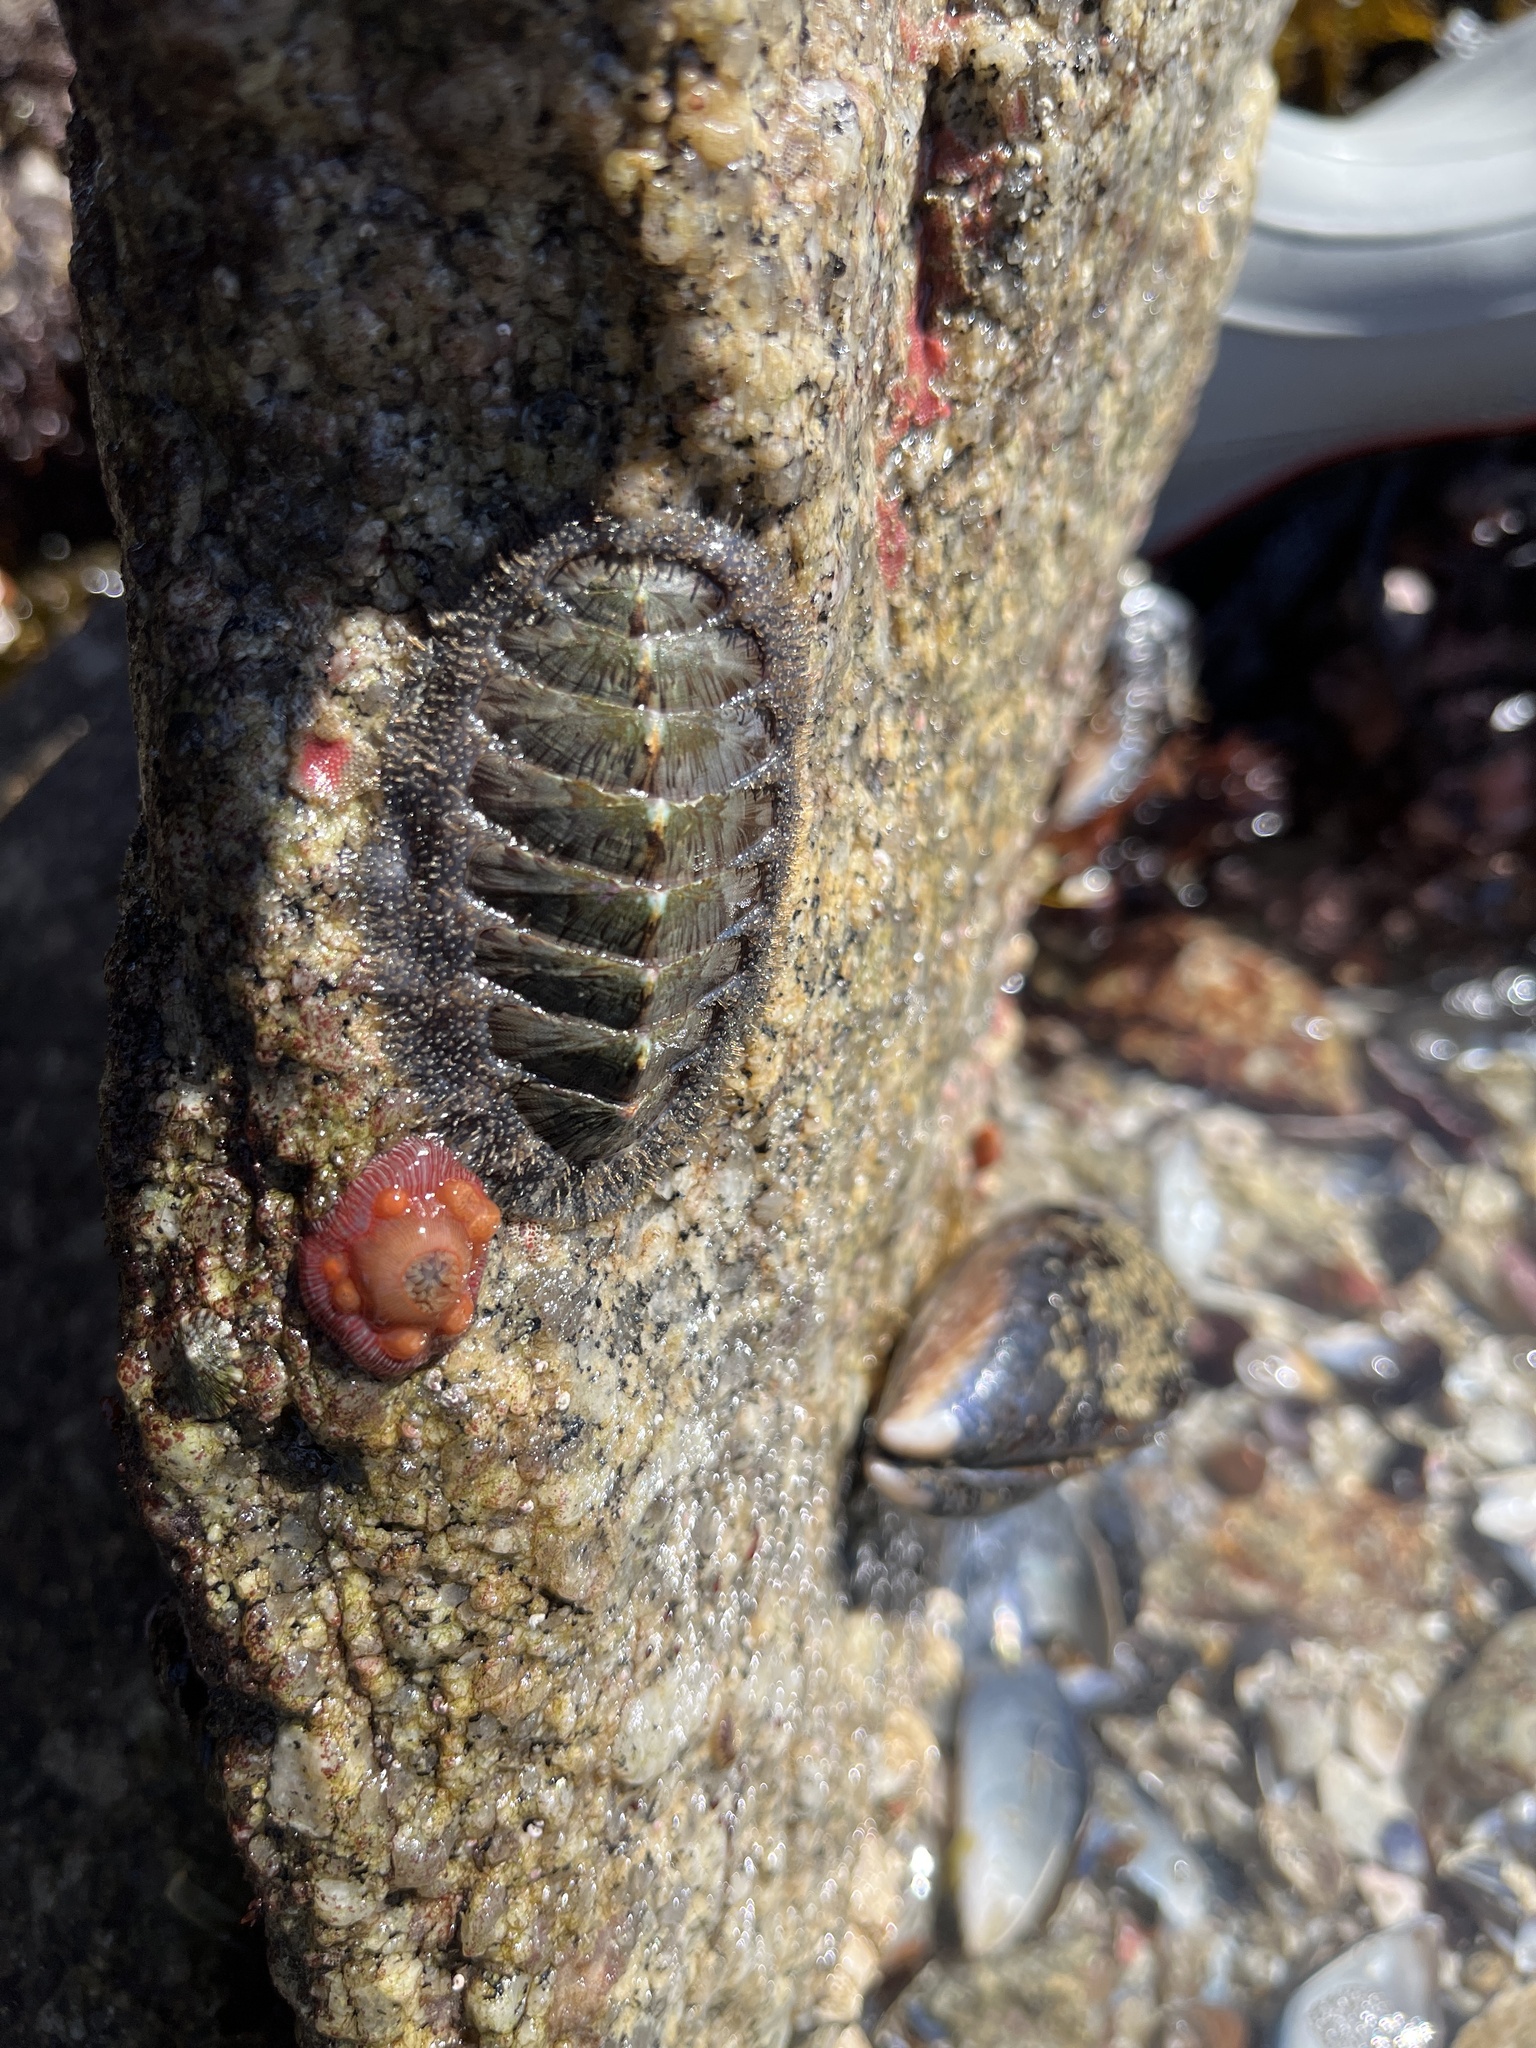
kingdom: Animalia
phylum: Mollusca
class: Polyplacophora
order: Chitonida
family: Mopaliidae
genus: Mopalia
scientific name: Mopalia lignosa
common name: Woody chiton
